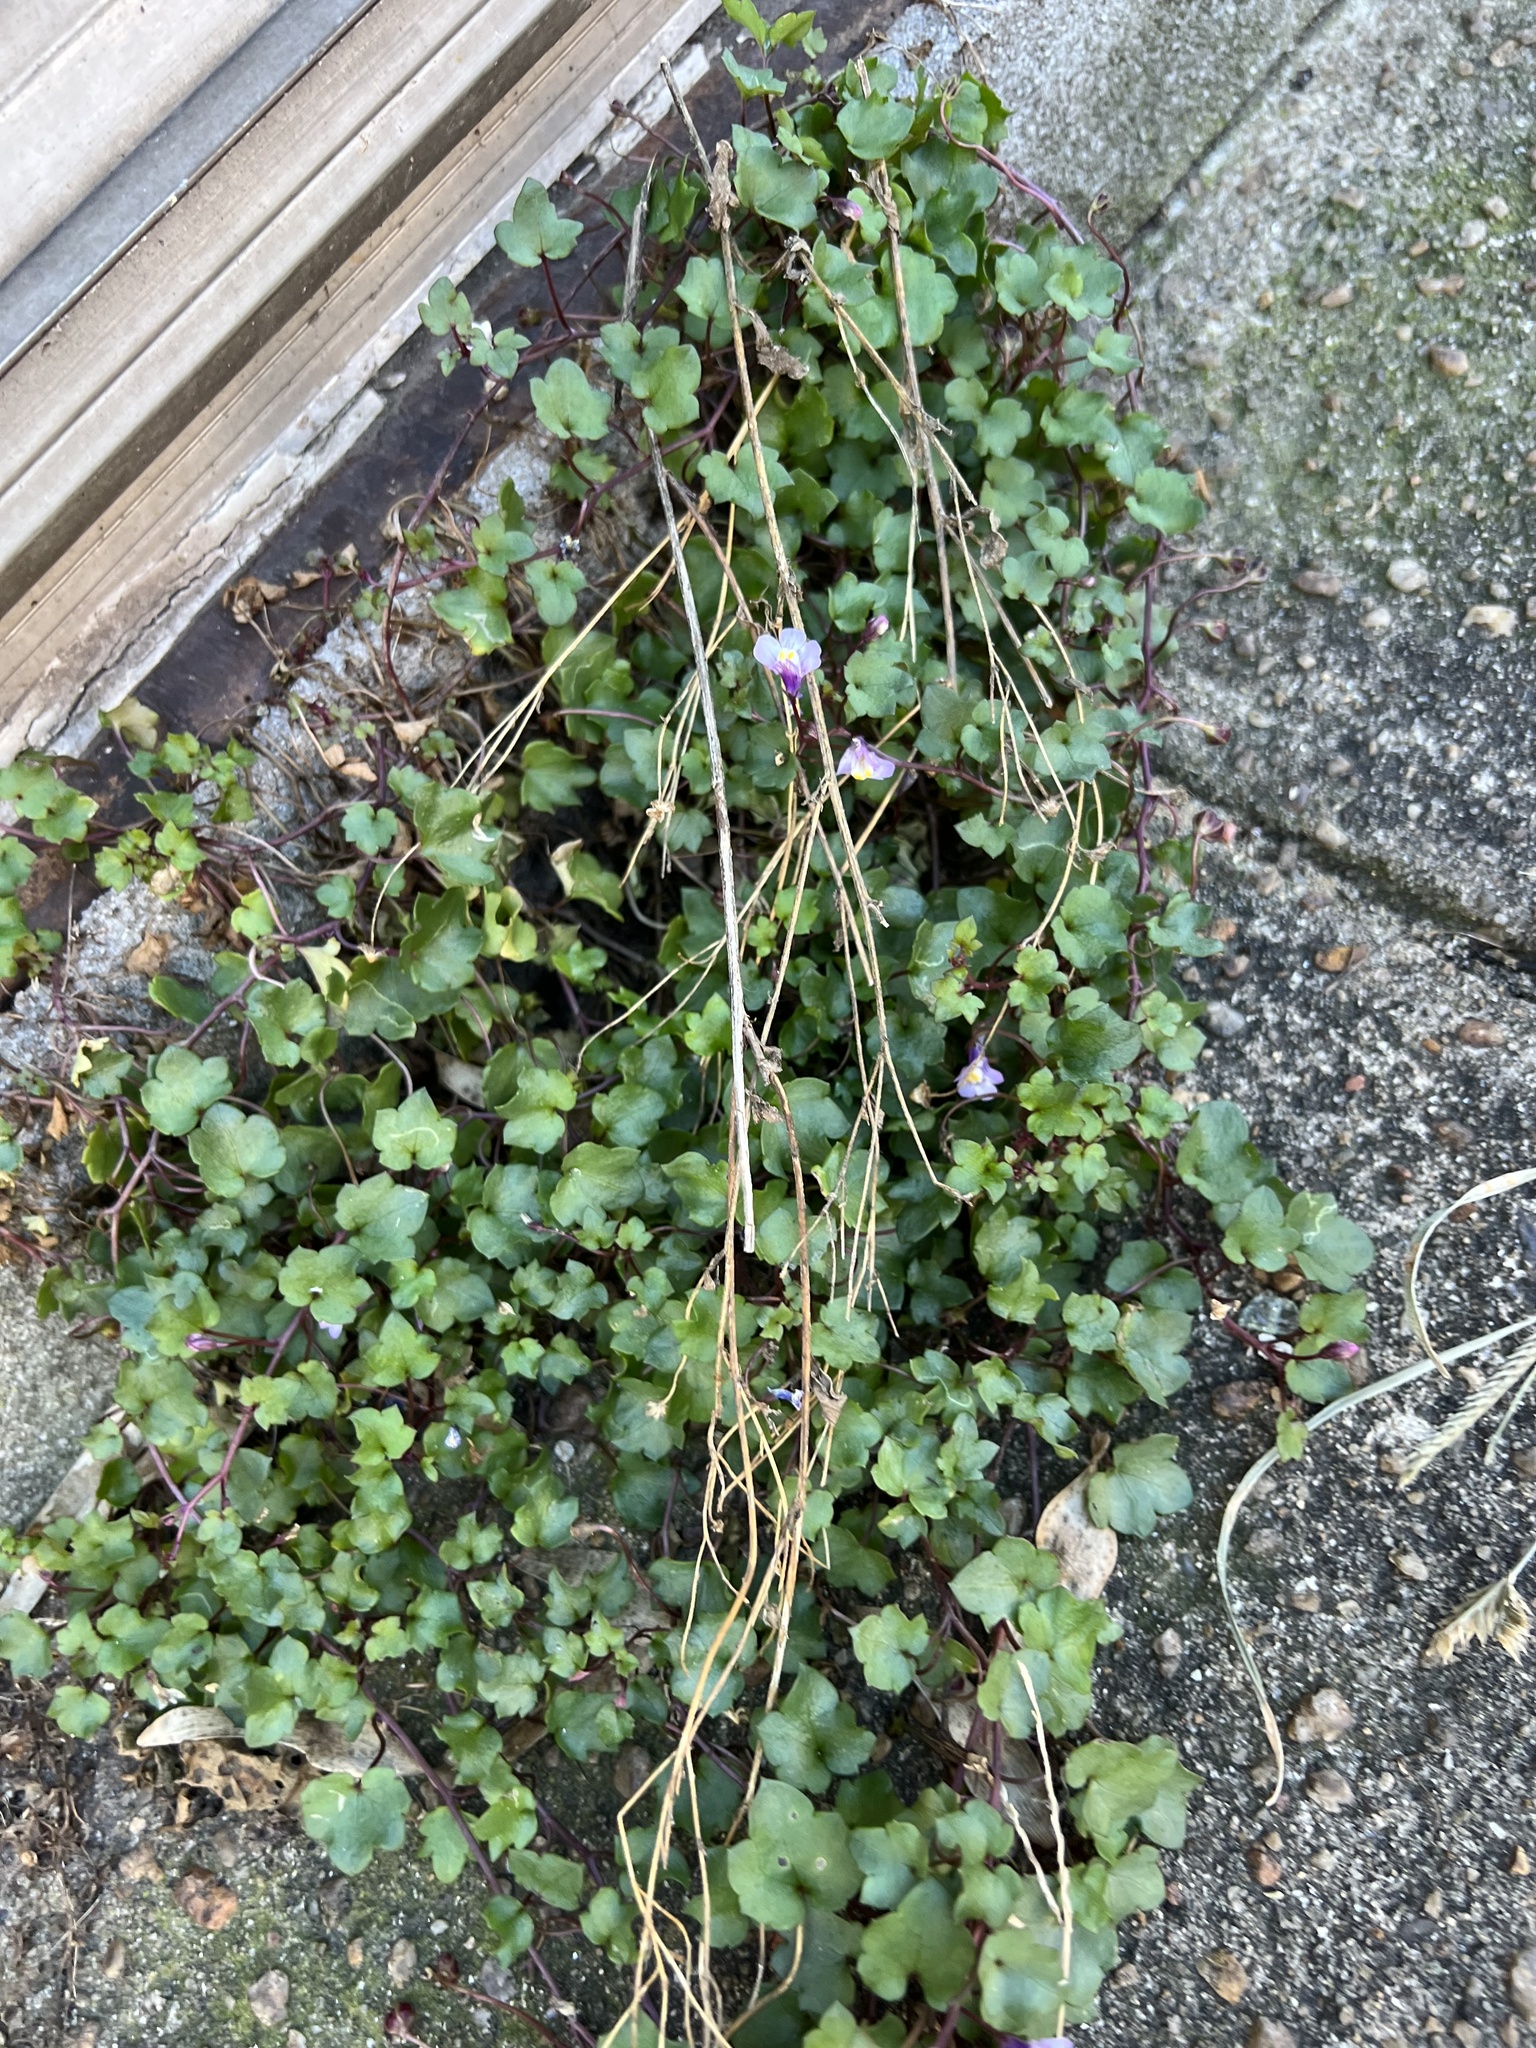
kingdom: Plantae
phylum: Tracheophyta
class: Magnoliopsida
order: Lamiales
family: Plantaginaceae
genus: Cymbalaria
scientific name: Cymbalaria muralis
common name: Ivy-leaved toadflax
